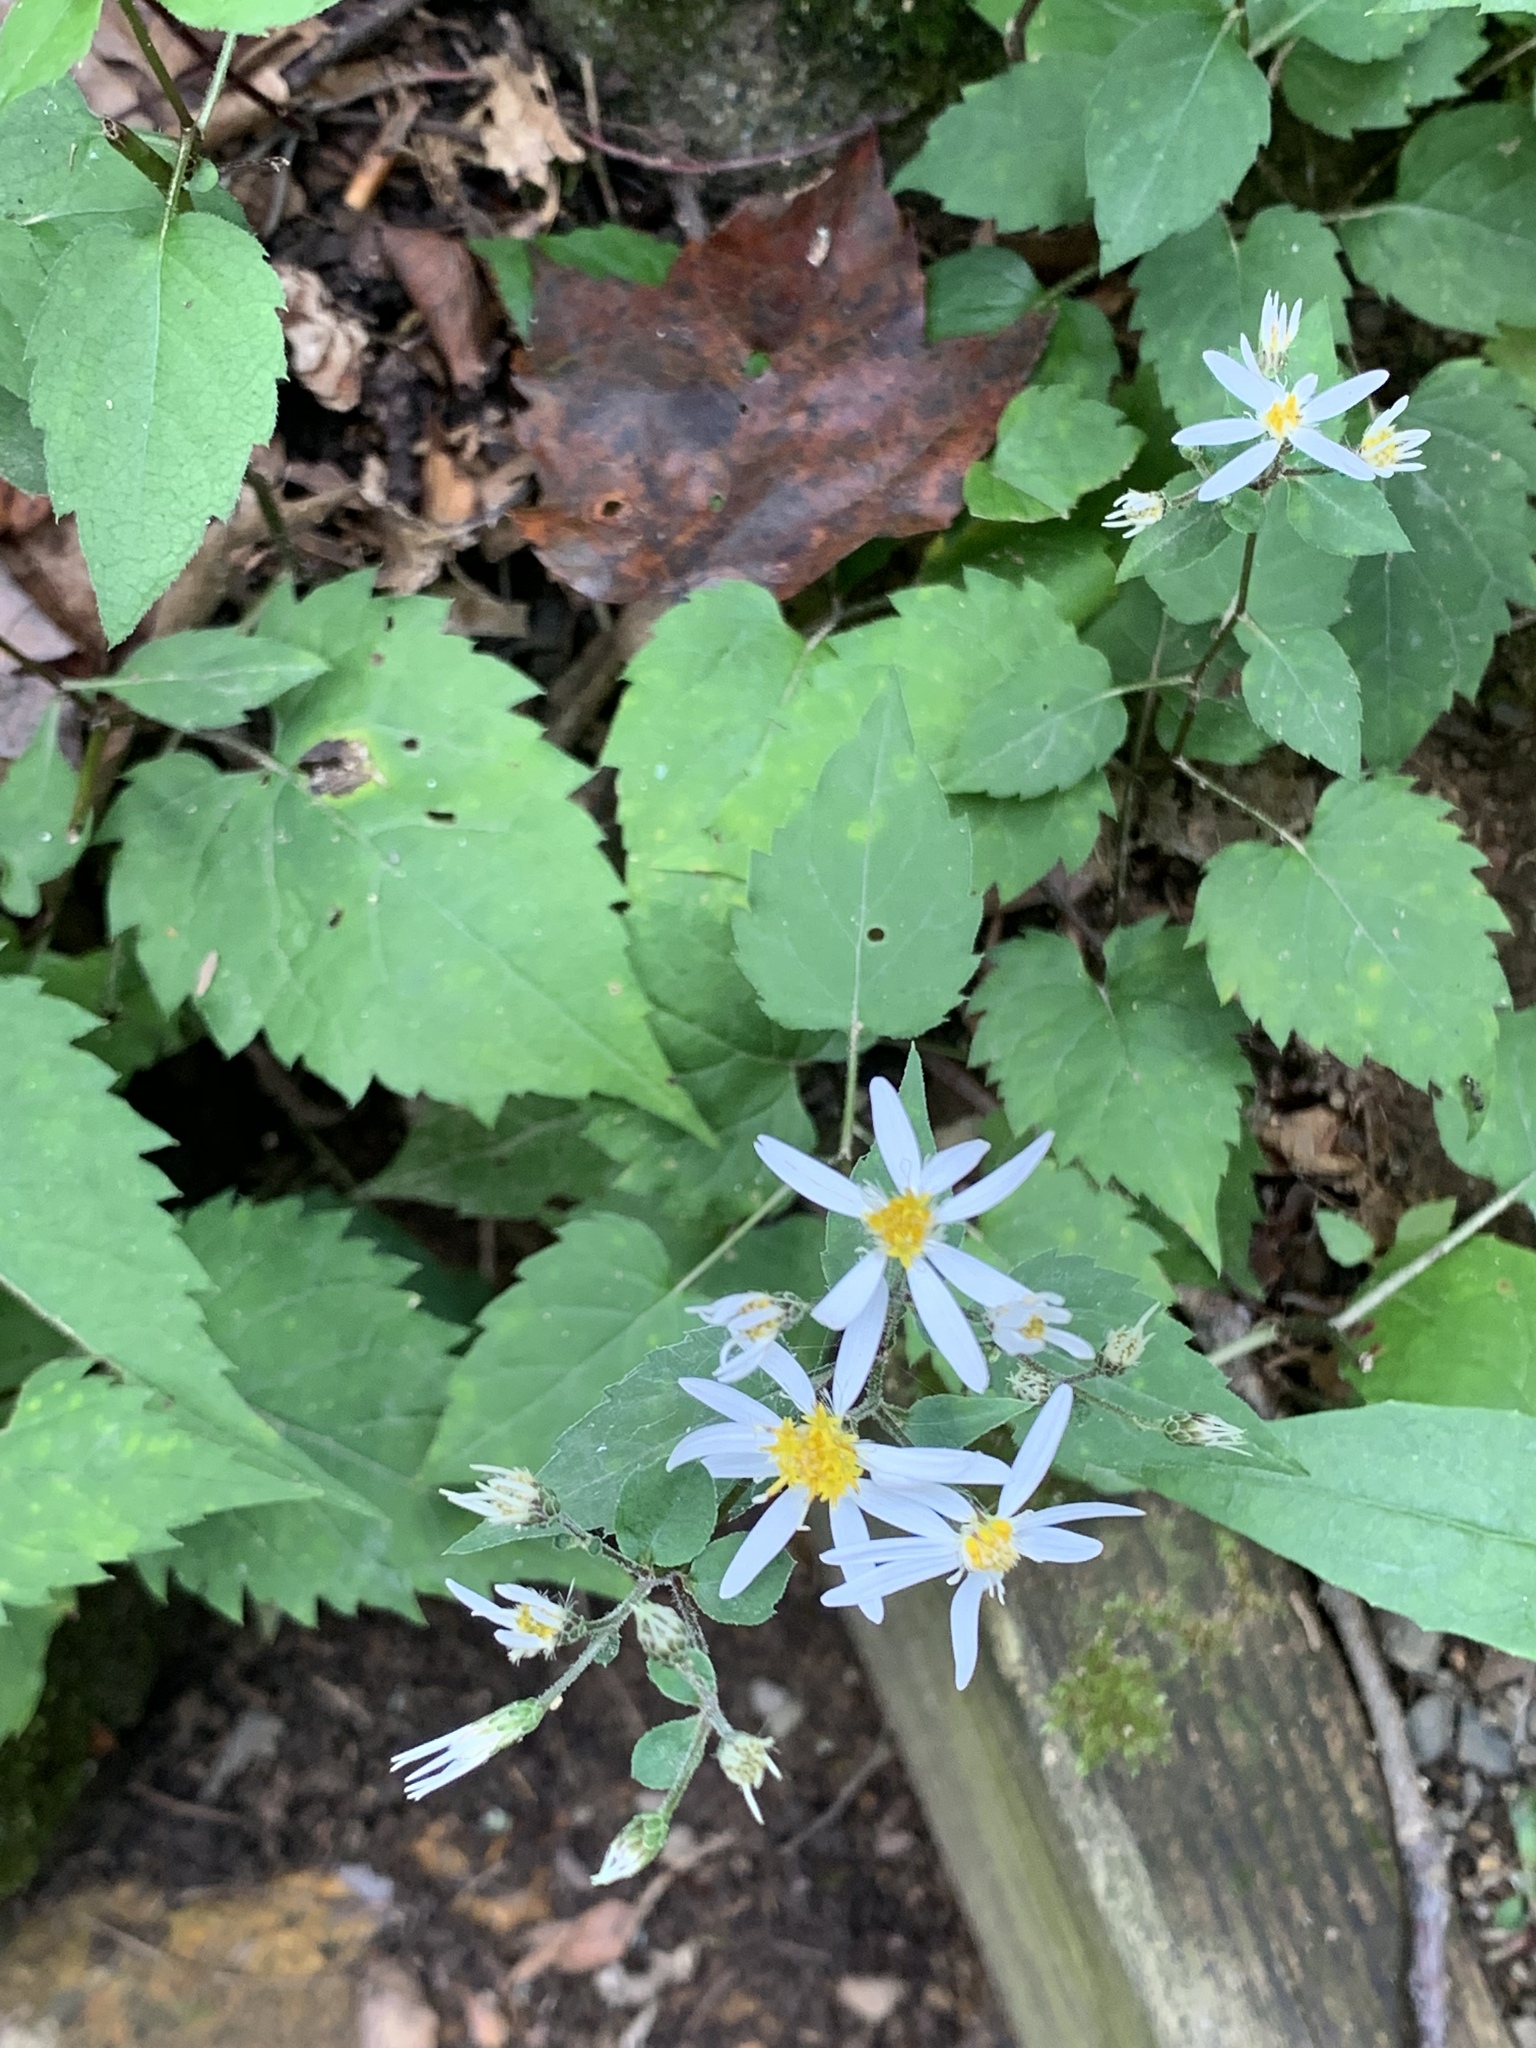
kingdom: Plantae
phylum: Tracheophyta
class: Magnoliopsida
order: Asterales
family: Asteraceae
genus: Eurybia
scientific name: Eurybia divaricata
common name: White wood aster
